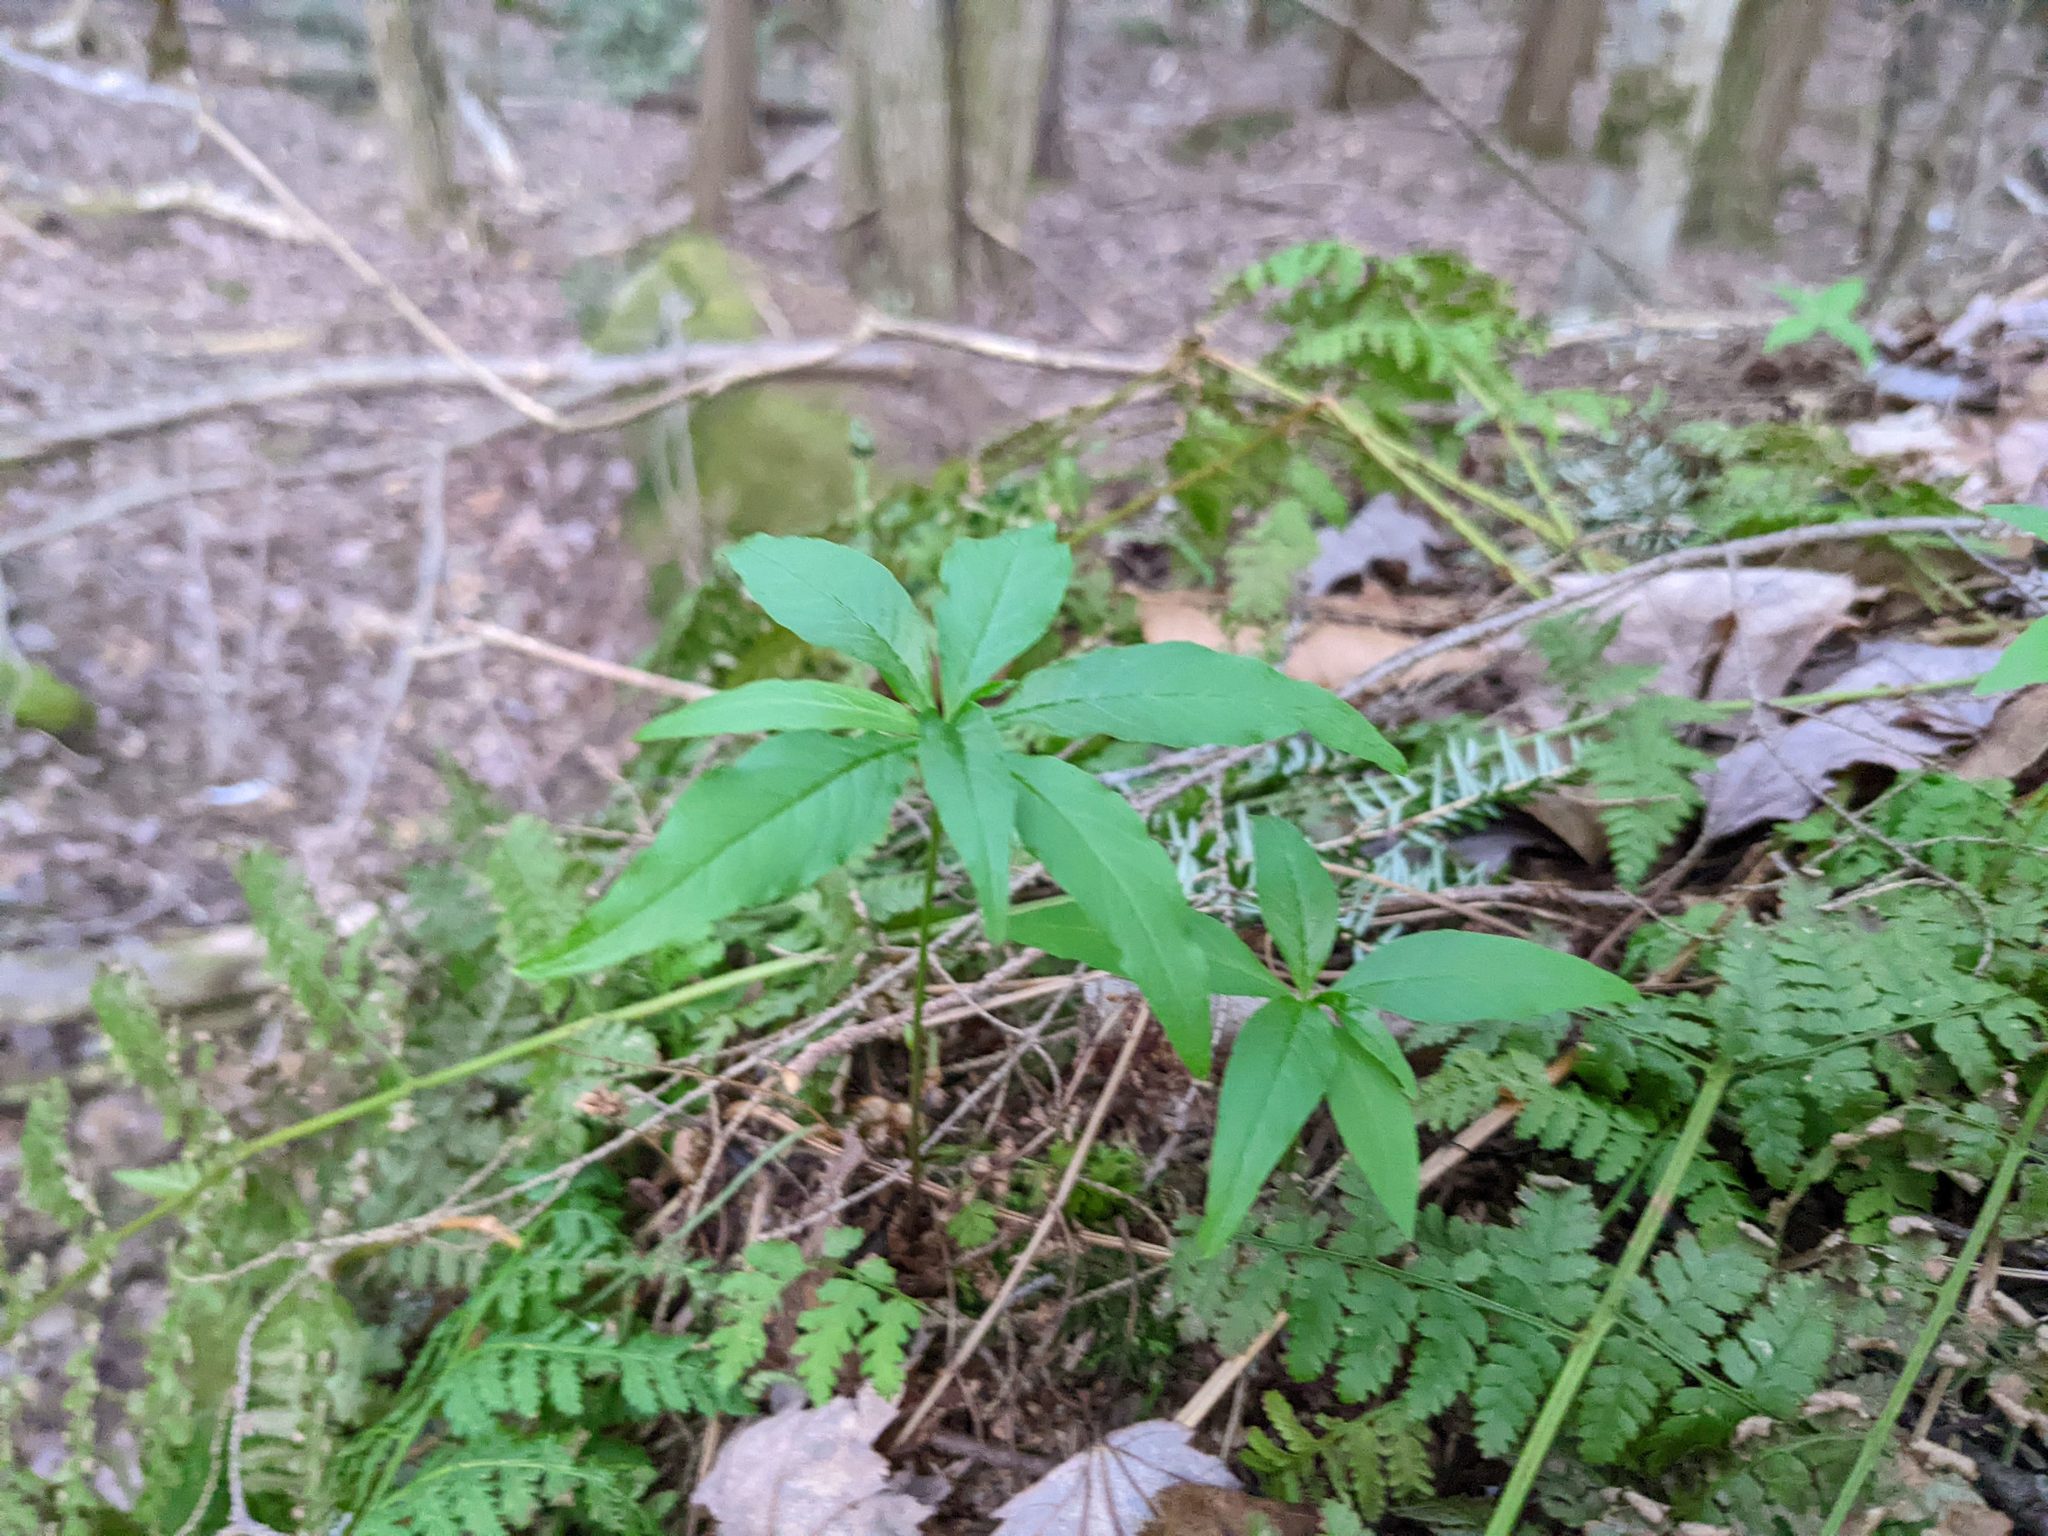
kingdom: Plantae
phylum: Tracheophyta
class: Magnoliopsida
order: Ericales
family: Primulaceae
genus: Lysimachia
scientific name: Lysimachia borealis
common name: American starflower
